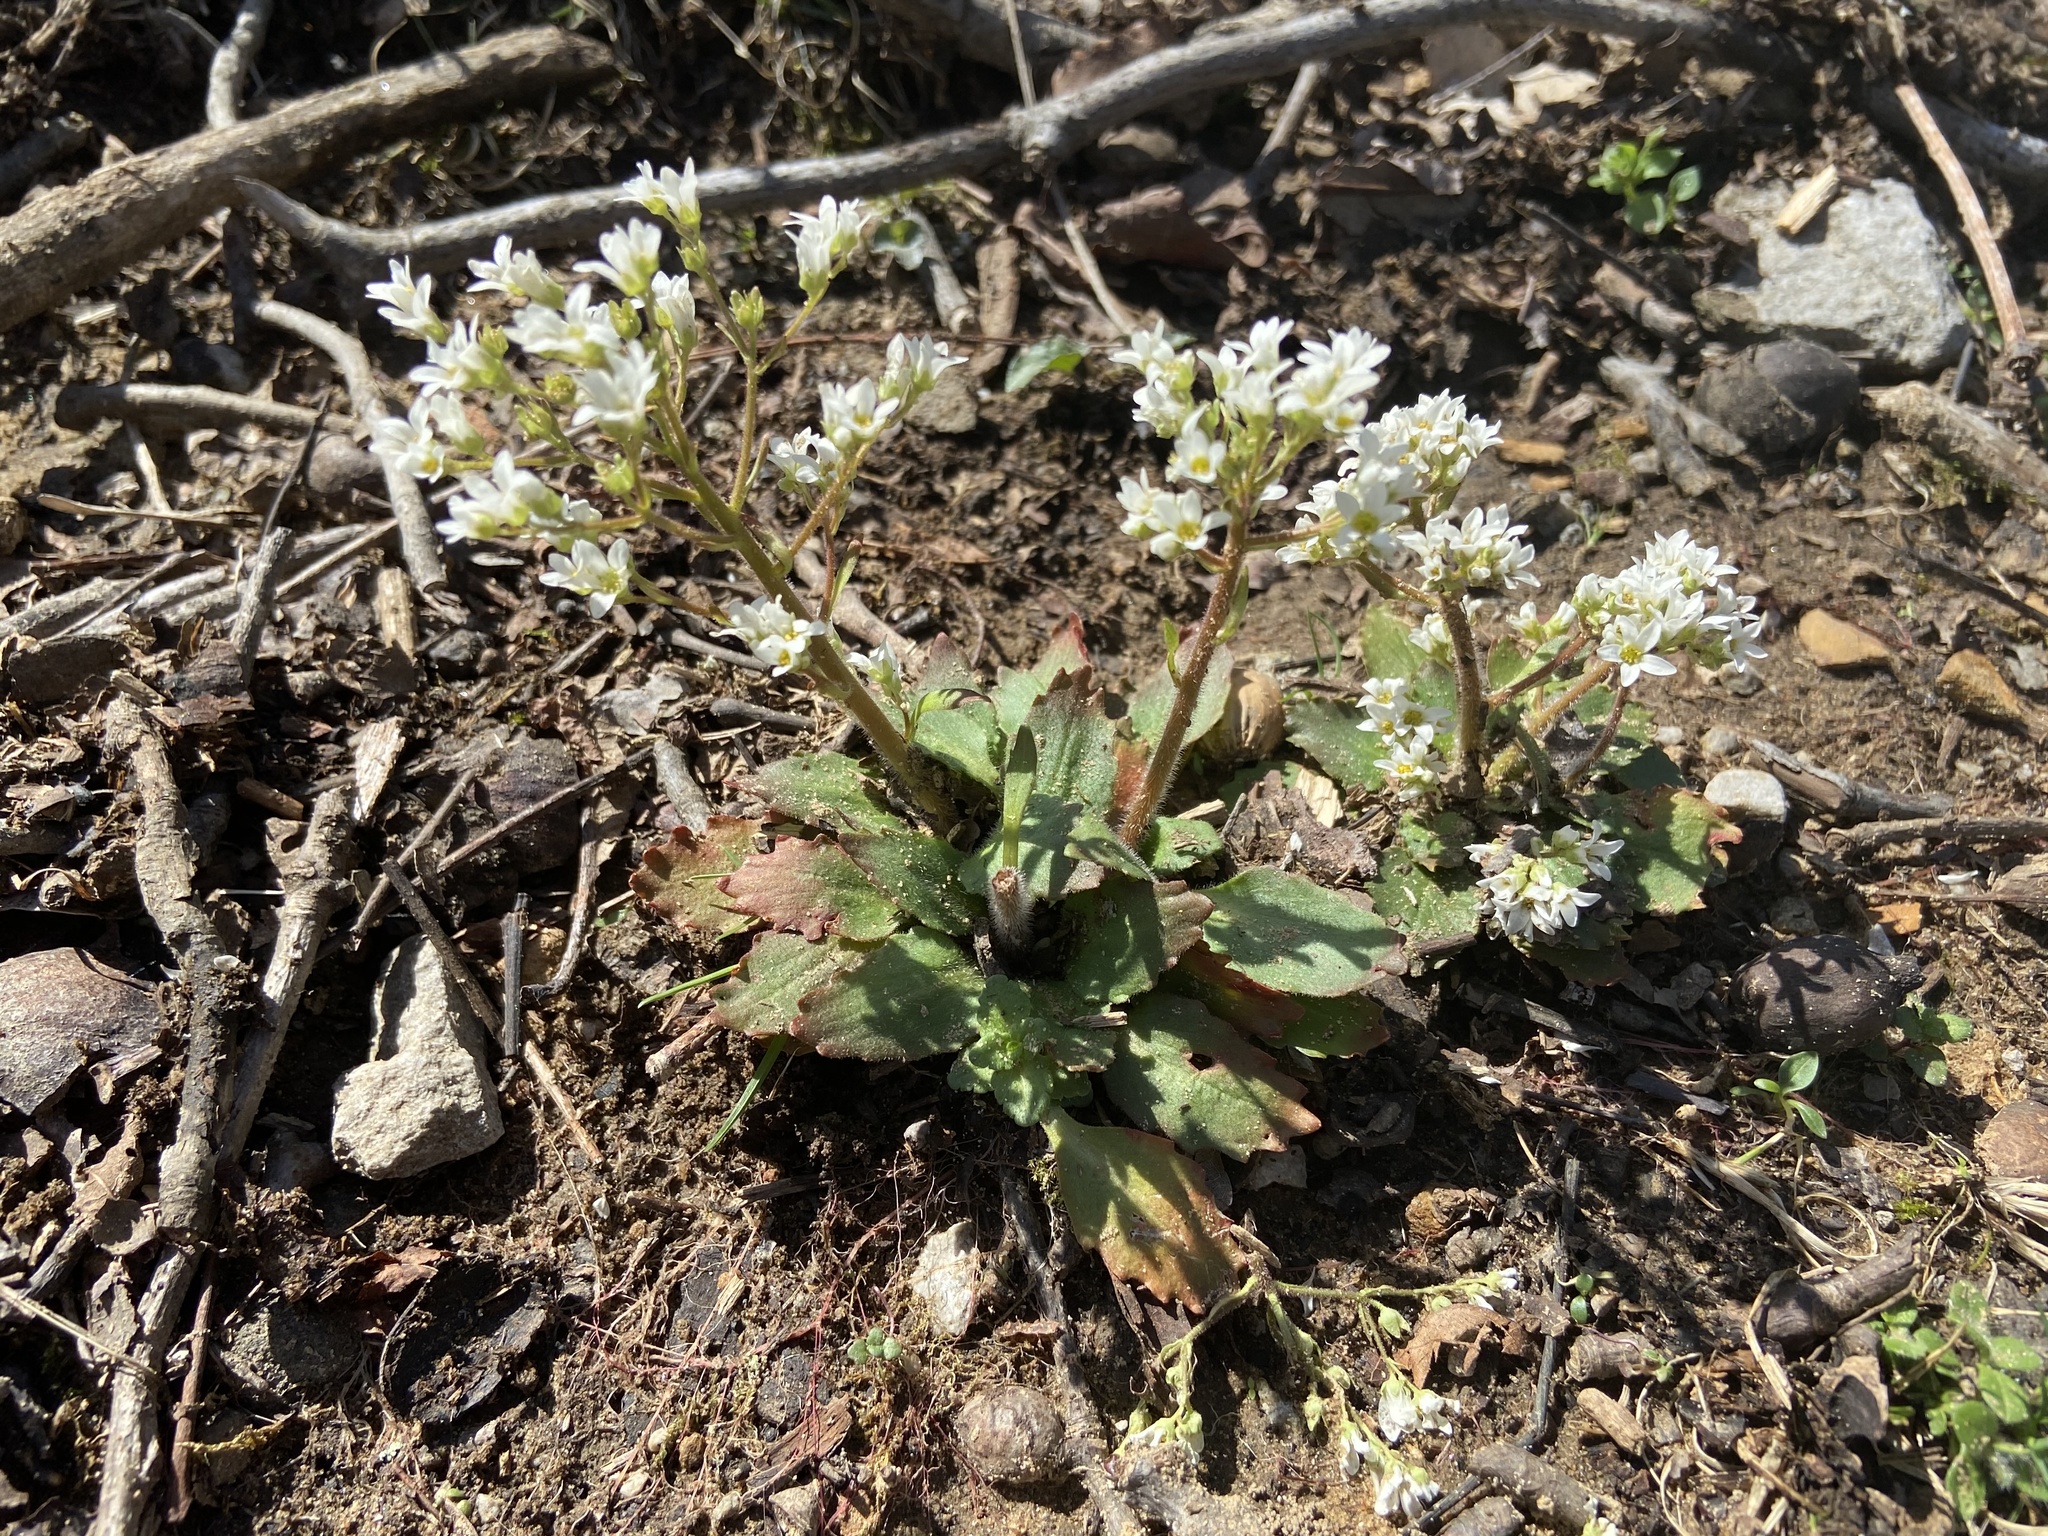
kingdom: Plantae
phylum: Tracheophyta
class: Magnoliopsida
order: Saxifragales
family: Saxifragaceae
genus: Micranthes
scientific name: Micranthes virginiensis
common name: Early saxifrage
